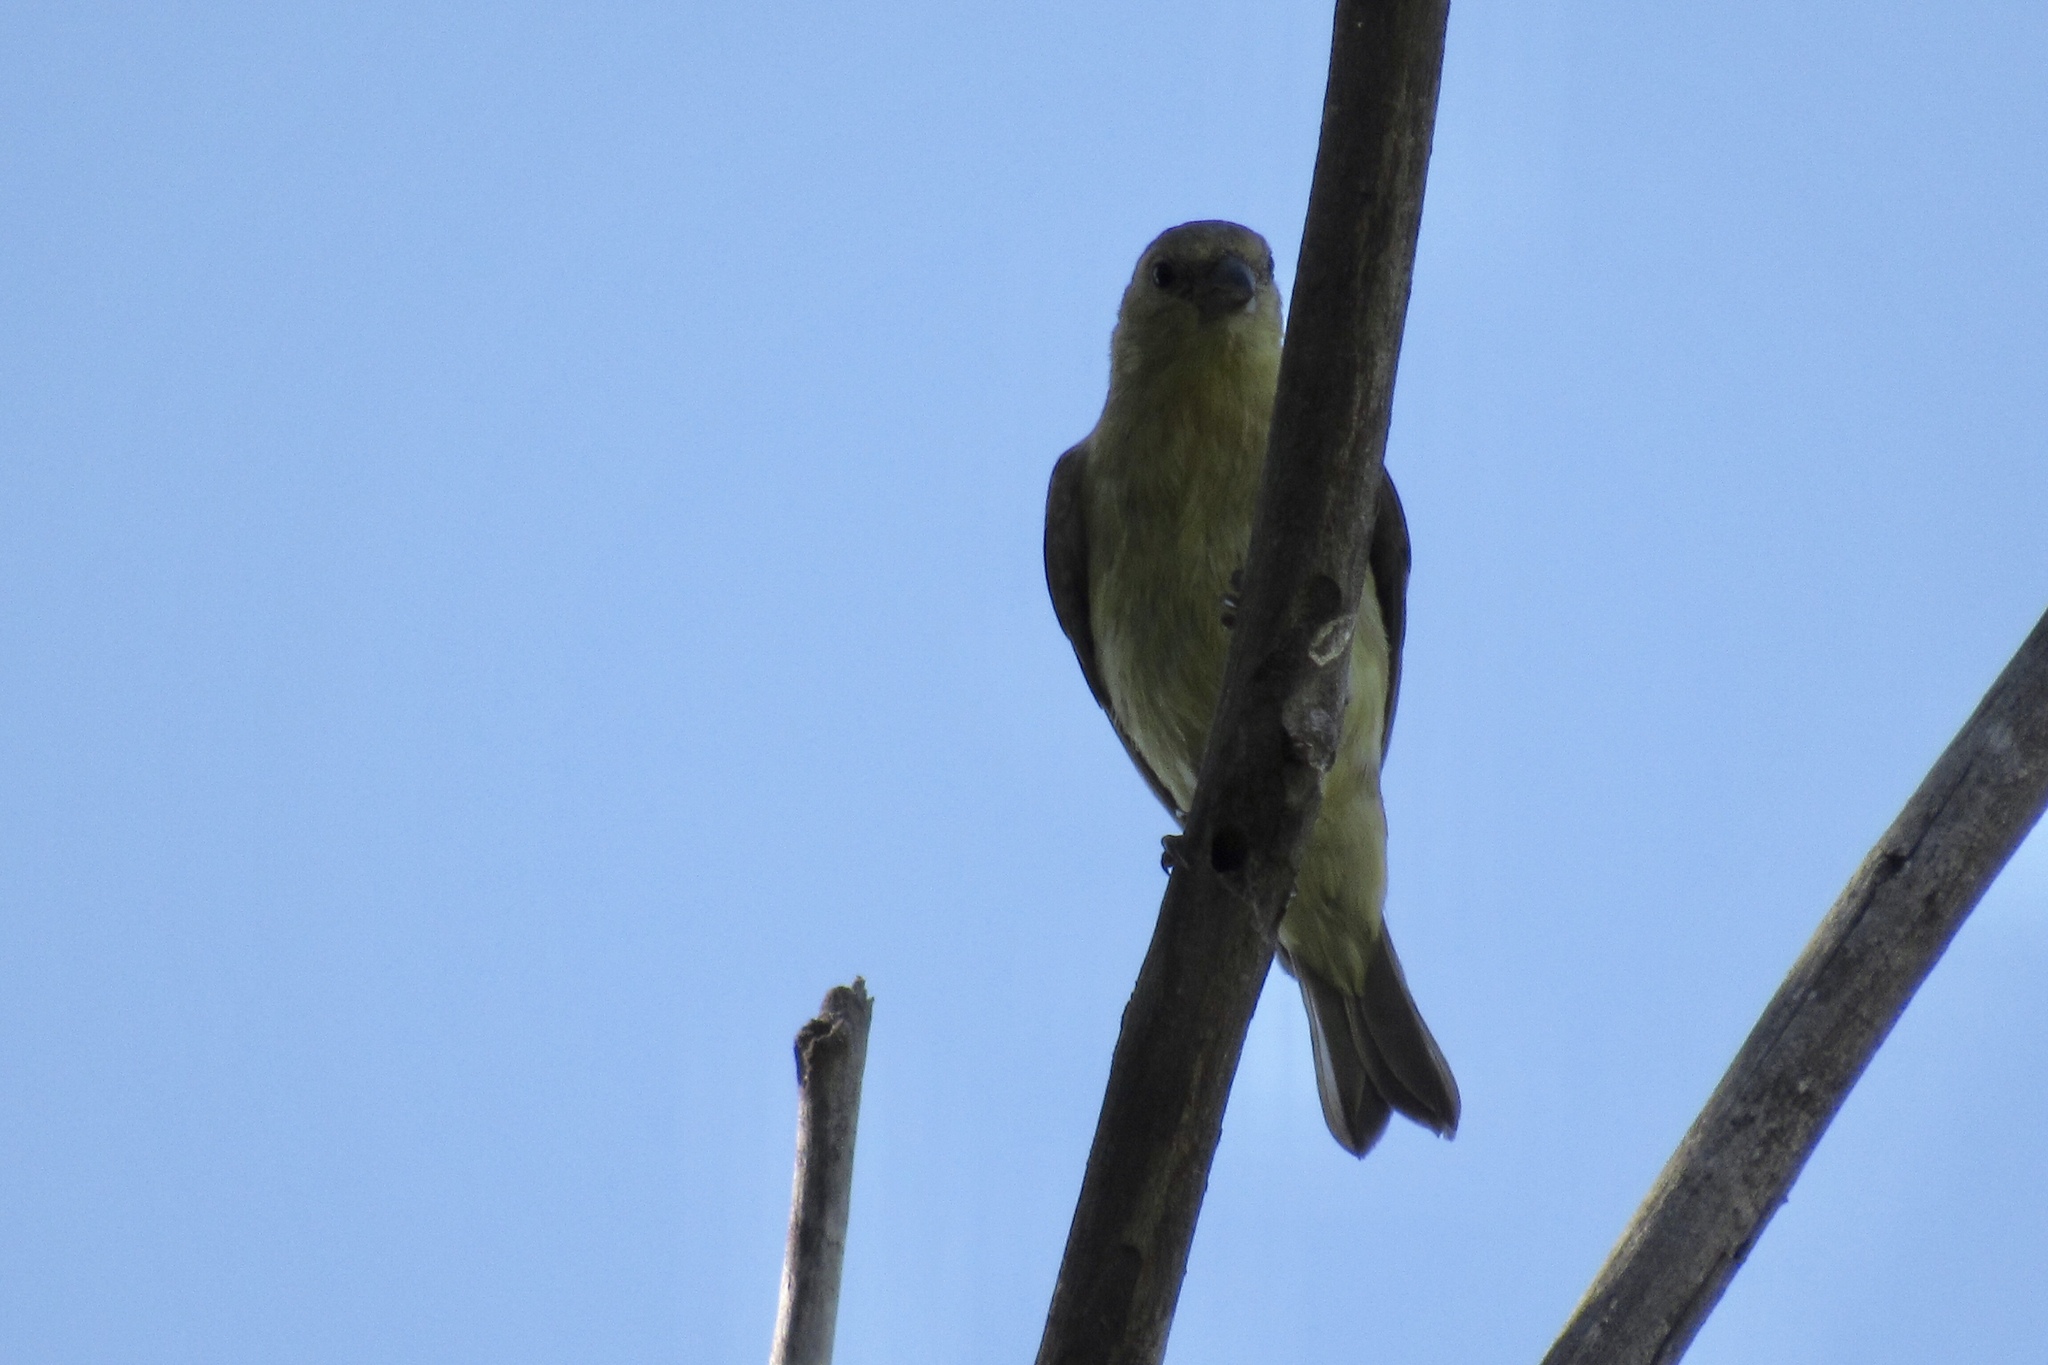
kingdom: Animalia
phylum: Chordata
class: Aves
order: Passeriformes
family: Fringillidae
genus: Spinus
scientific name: Spinus psaltria
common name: Lesser goldfinch
